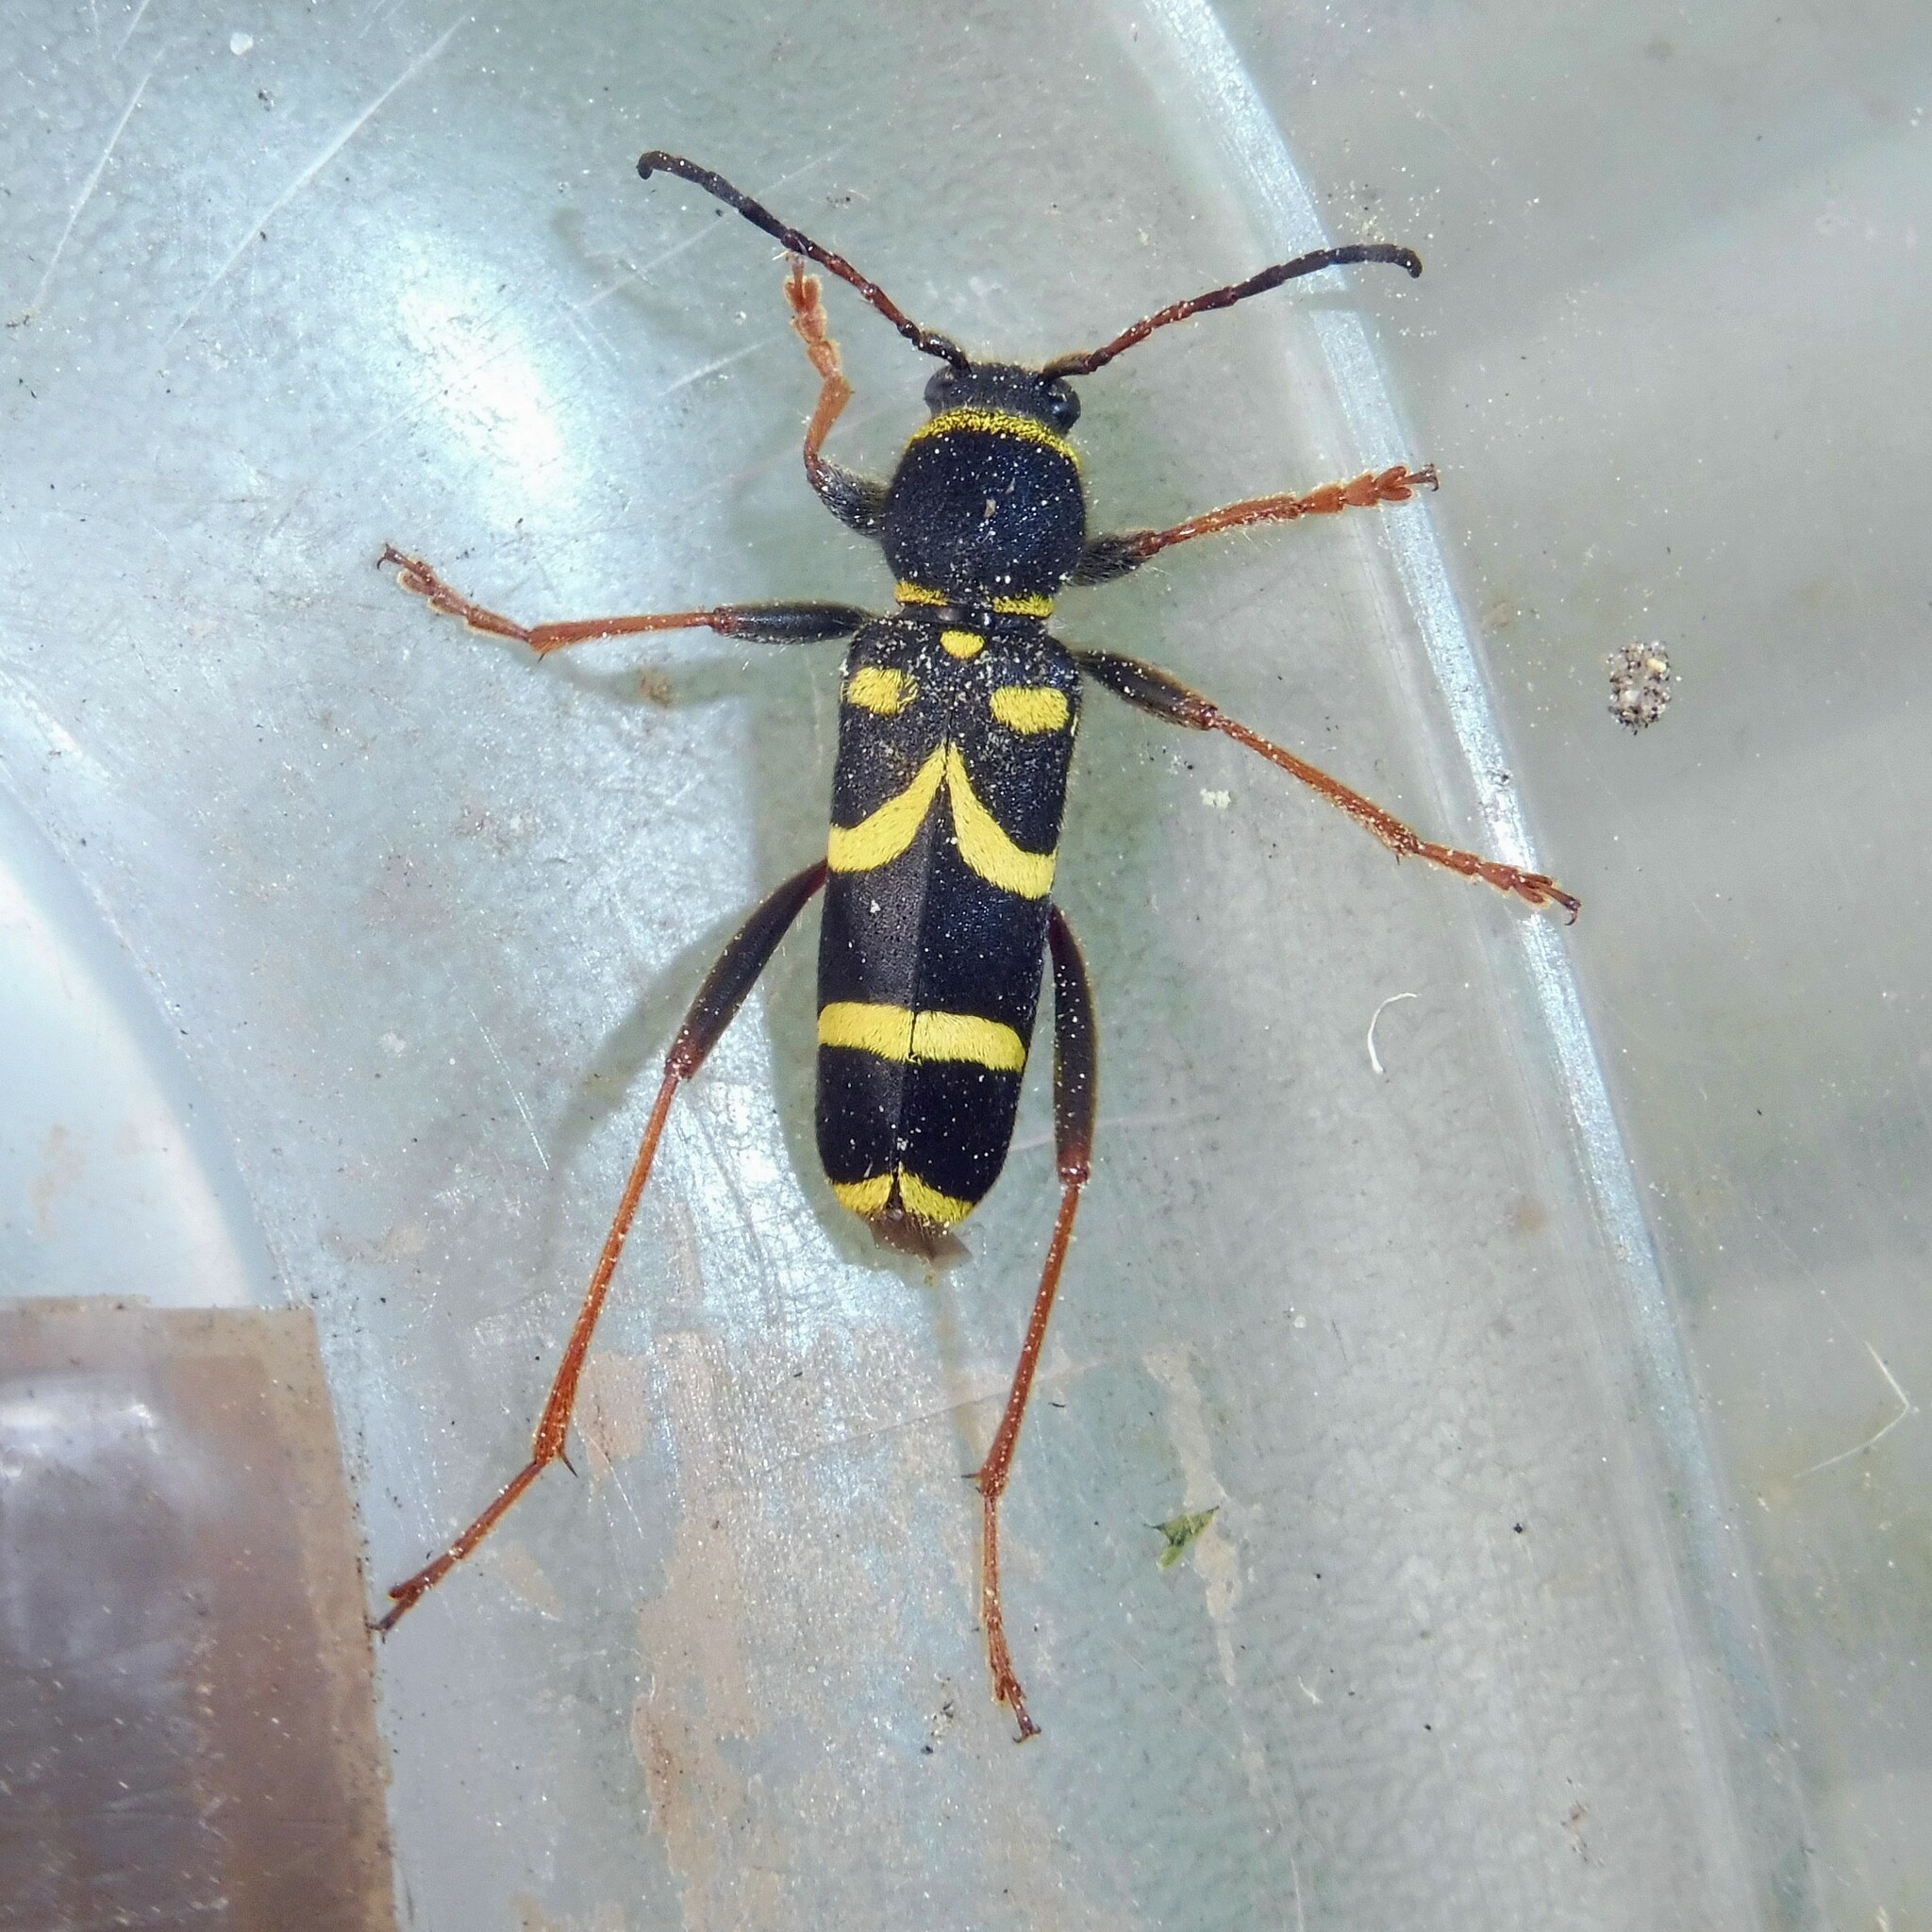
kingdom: Animalia
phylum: Arthropoda
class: Insecta
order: Coleoptera
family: Cerambycidae
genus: Clytus
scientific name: Clytus arietis
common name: Wasp beetle
